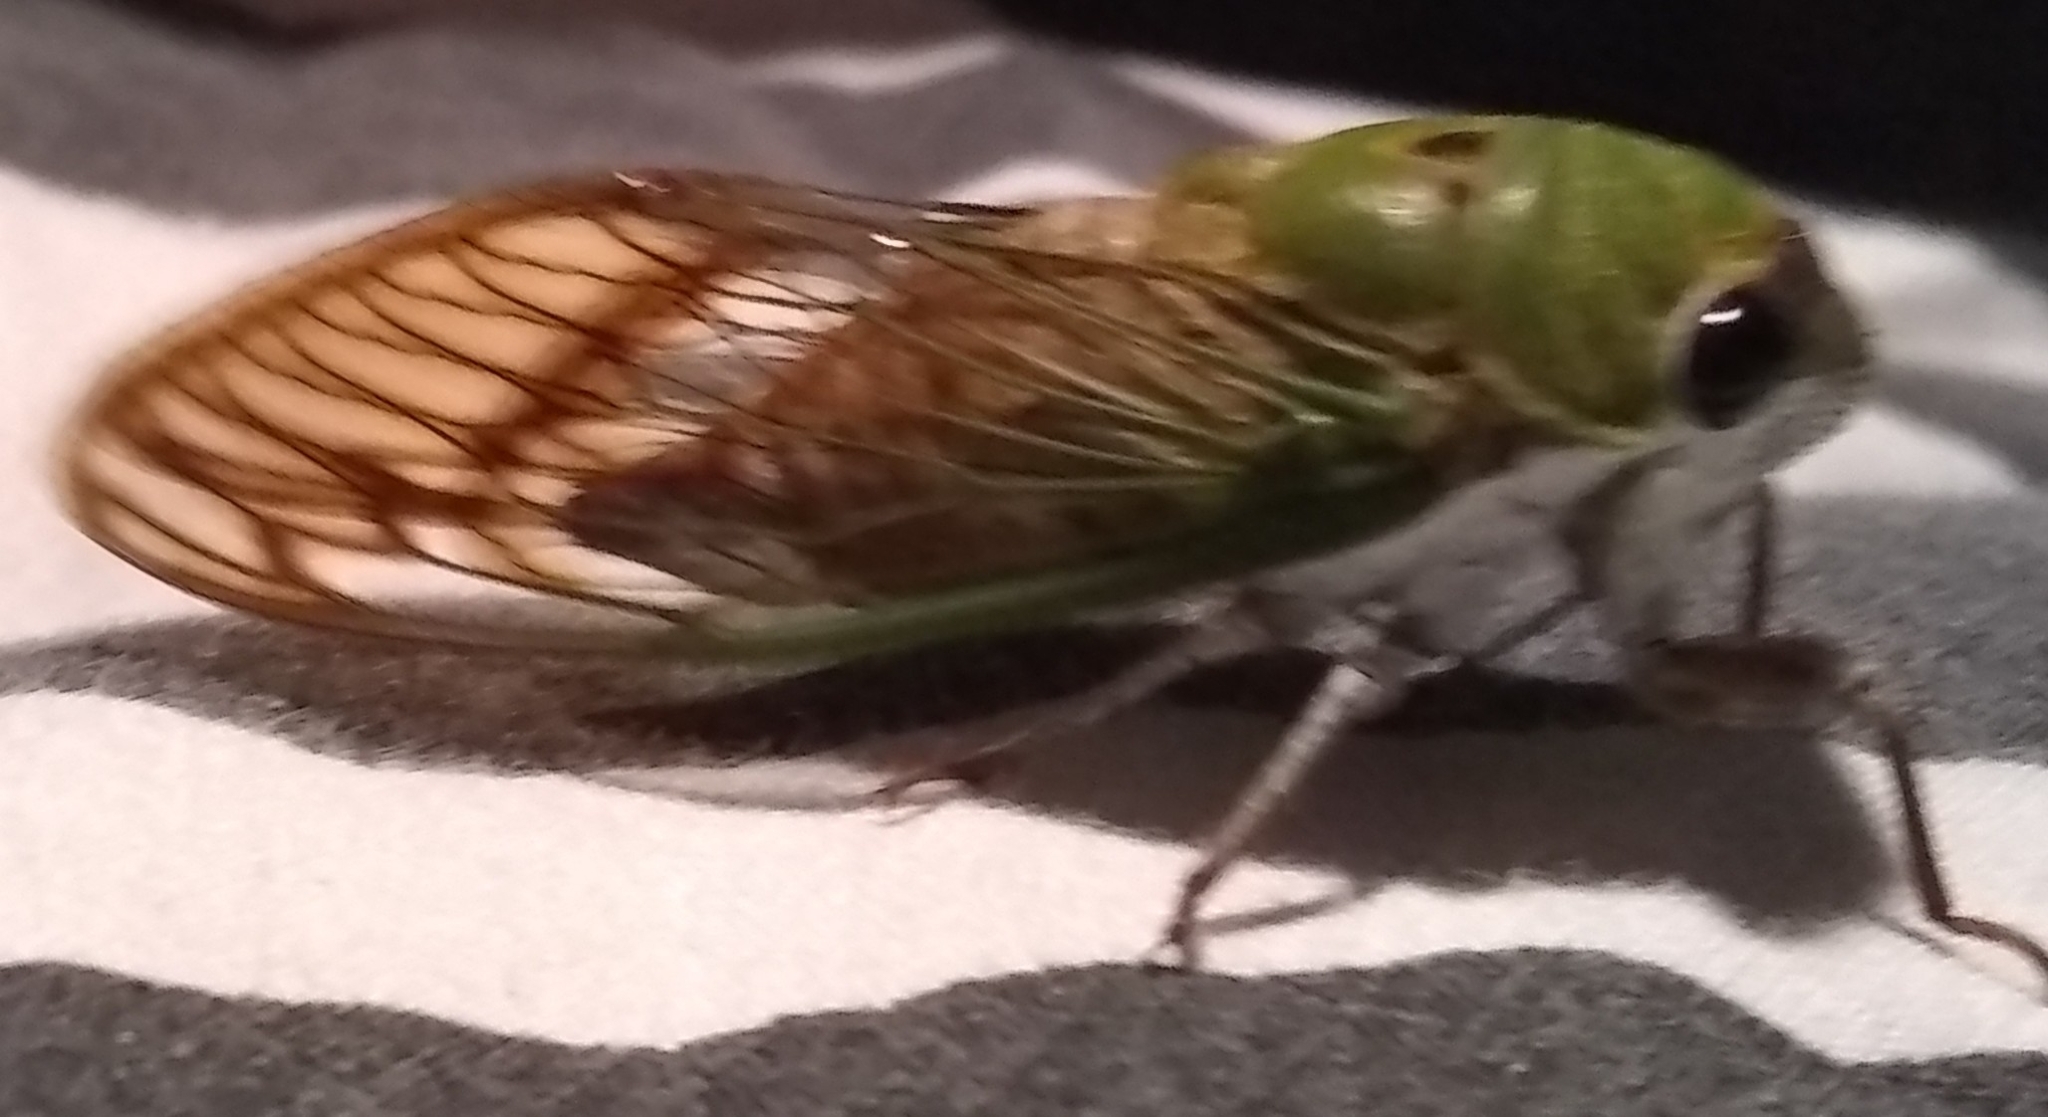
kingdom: Animalia
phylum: Arthropoda
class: Insecta
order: Hemiptera
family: Cicadidae
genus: Neotibicen
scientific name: Neotibicen superbus
